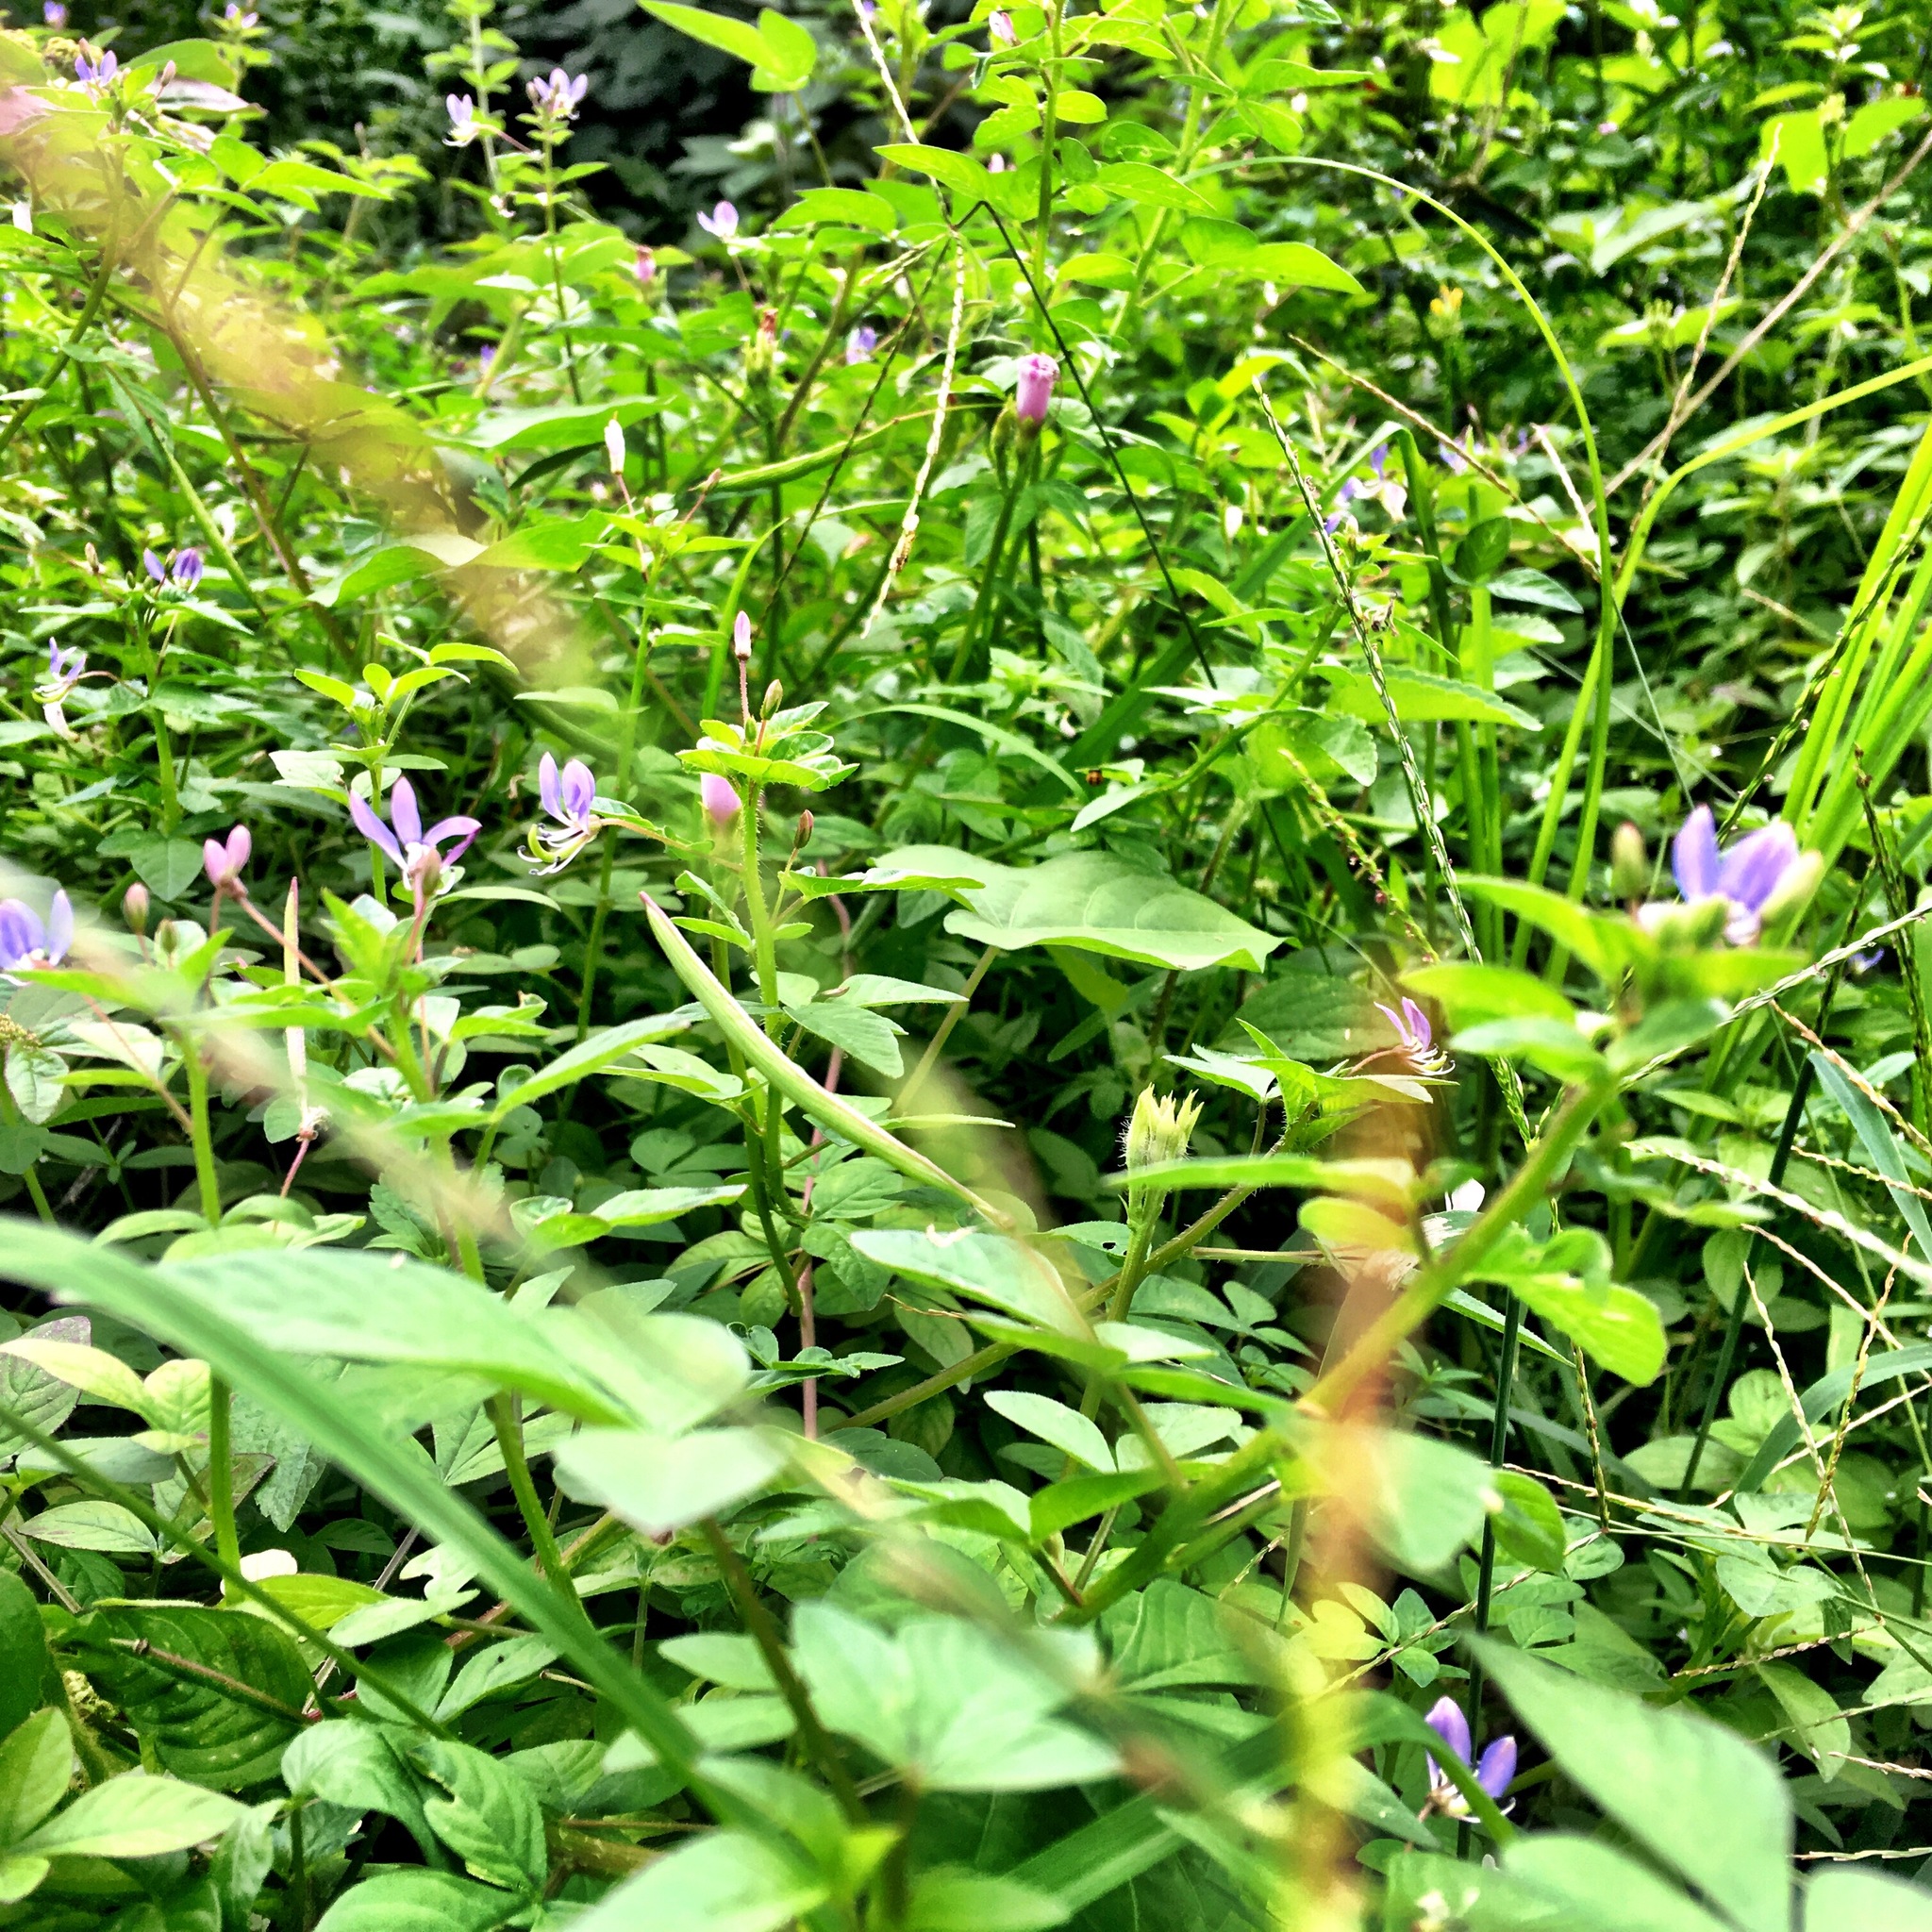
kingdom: Plantae
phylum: Tracheophyta
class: Magnoliopsida
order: Brassicales
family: Cleomaceae
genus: Sieruela
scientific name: Sieruela rutidosperma
